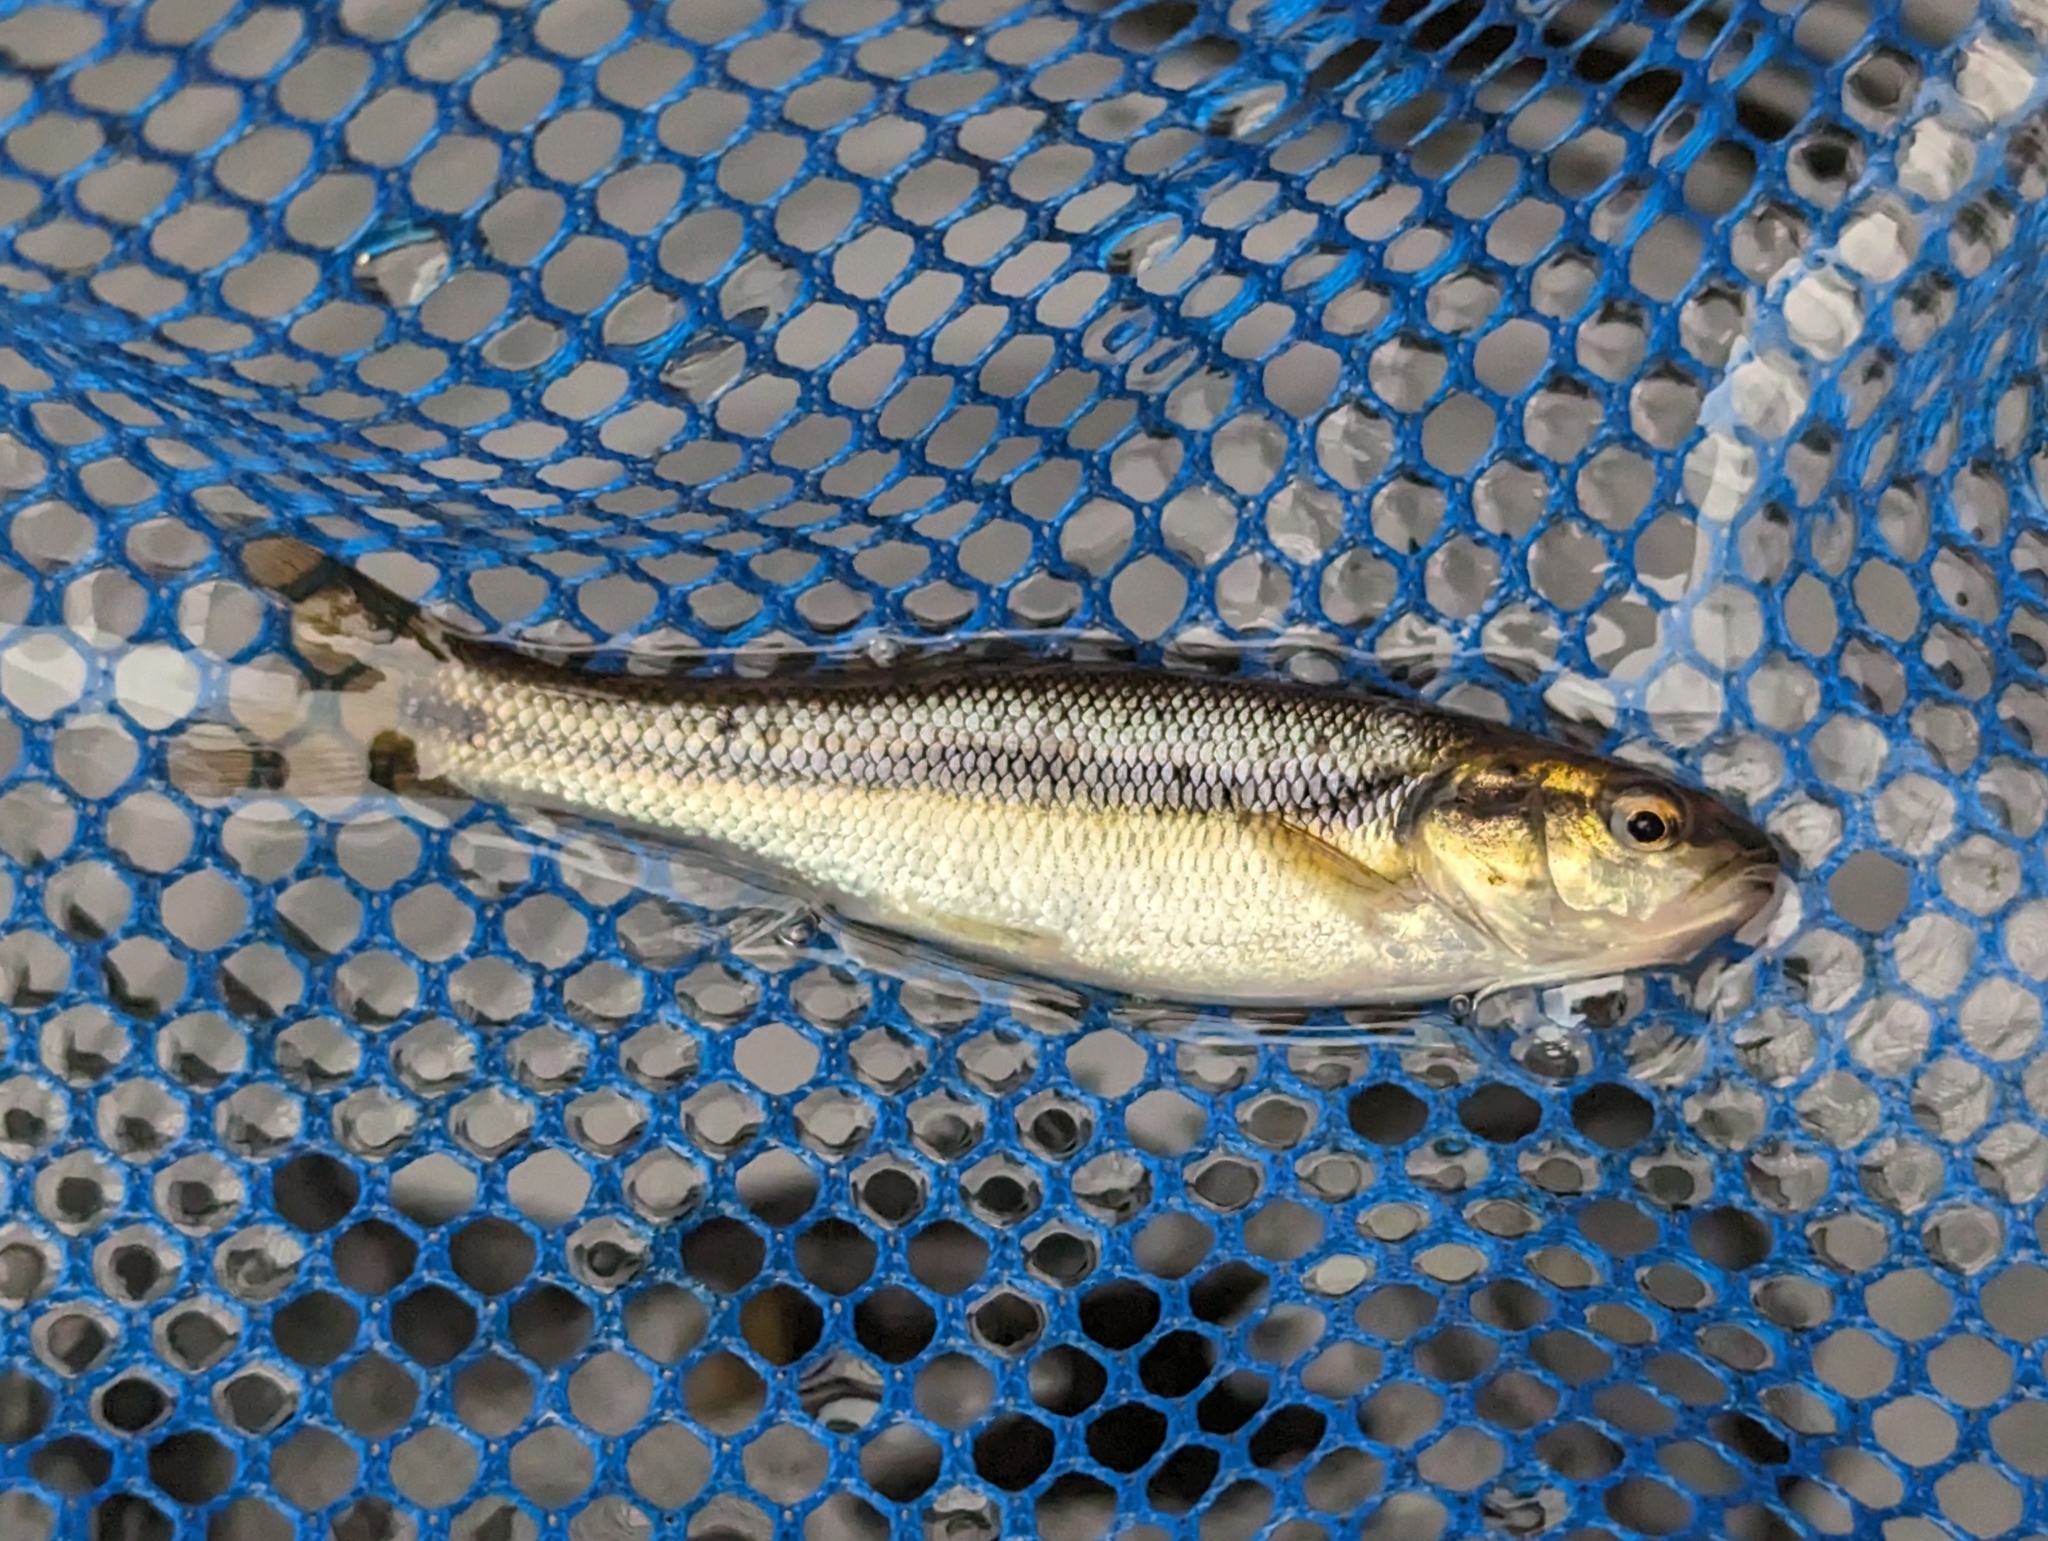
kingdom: Animalia
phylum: Chordata
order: Cypriniformes
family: Cyprinidae
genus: Semotilus
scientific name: Semotilus atromaculatus
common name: Creek chub
